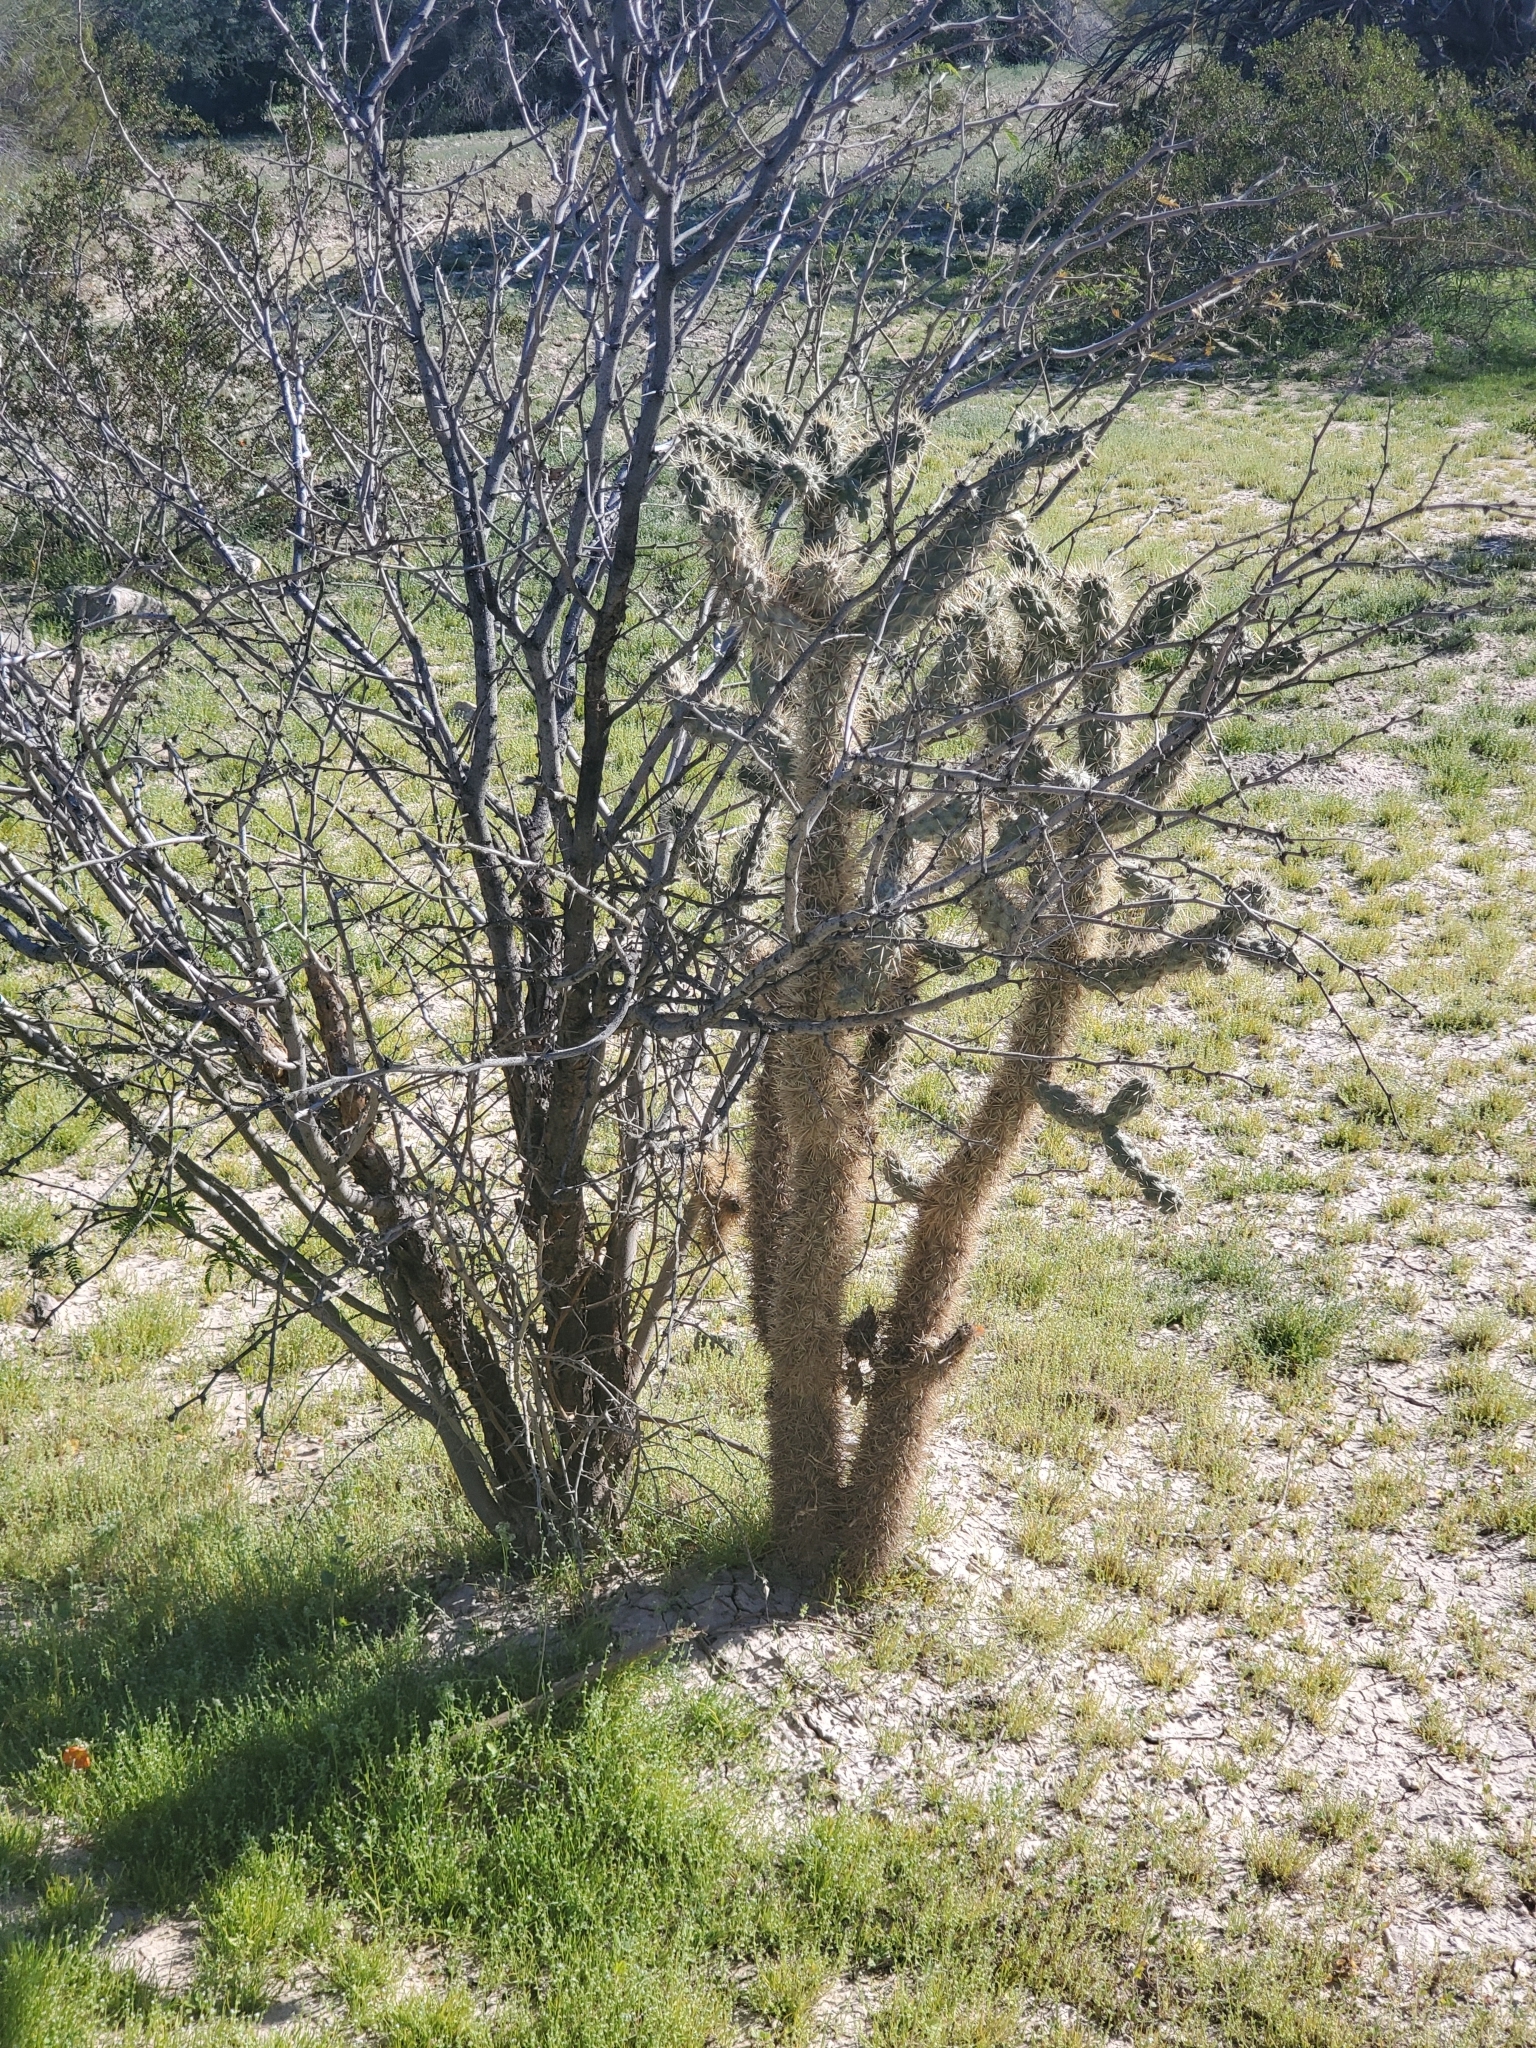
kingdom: Plantae
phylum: Tracheophyta
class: Magnoliopsida
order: Caryophyllales
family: Cactaceae
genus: Cylindropuntia
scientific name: Cylindropuntia munzii
